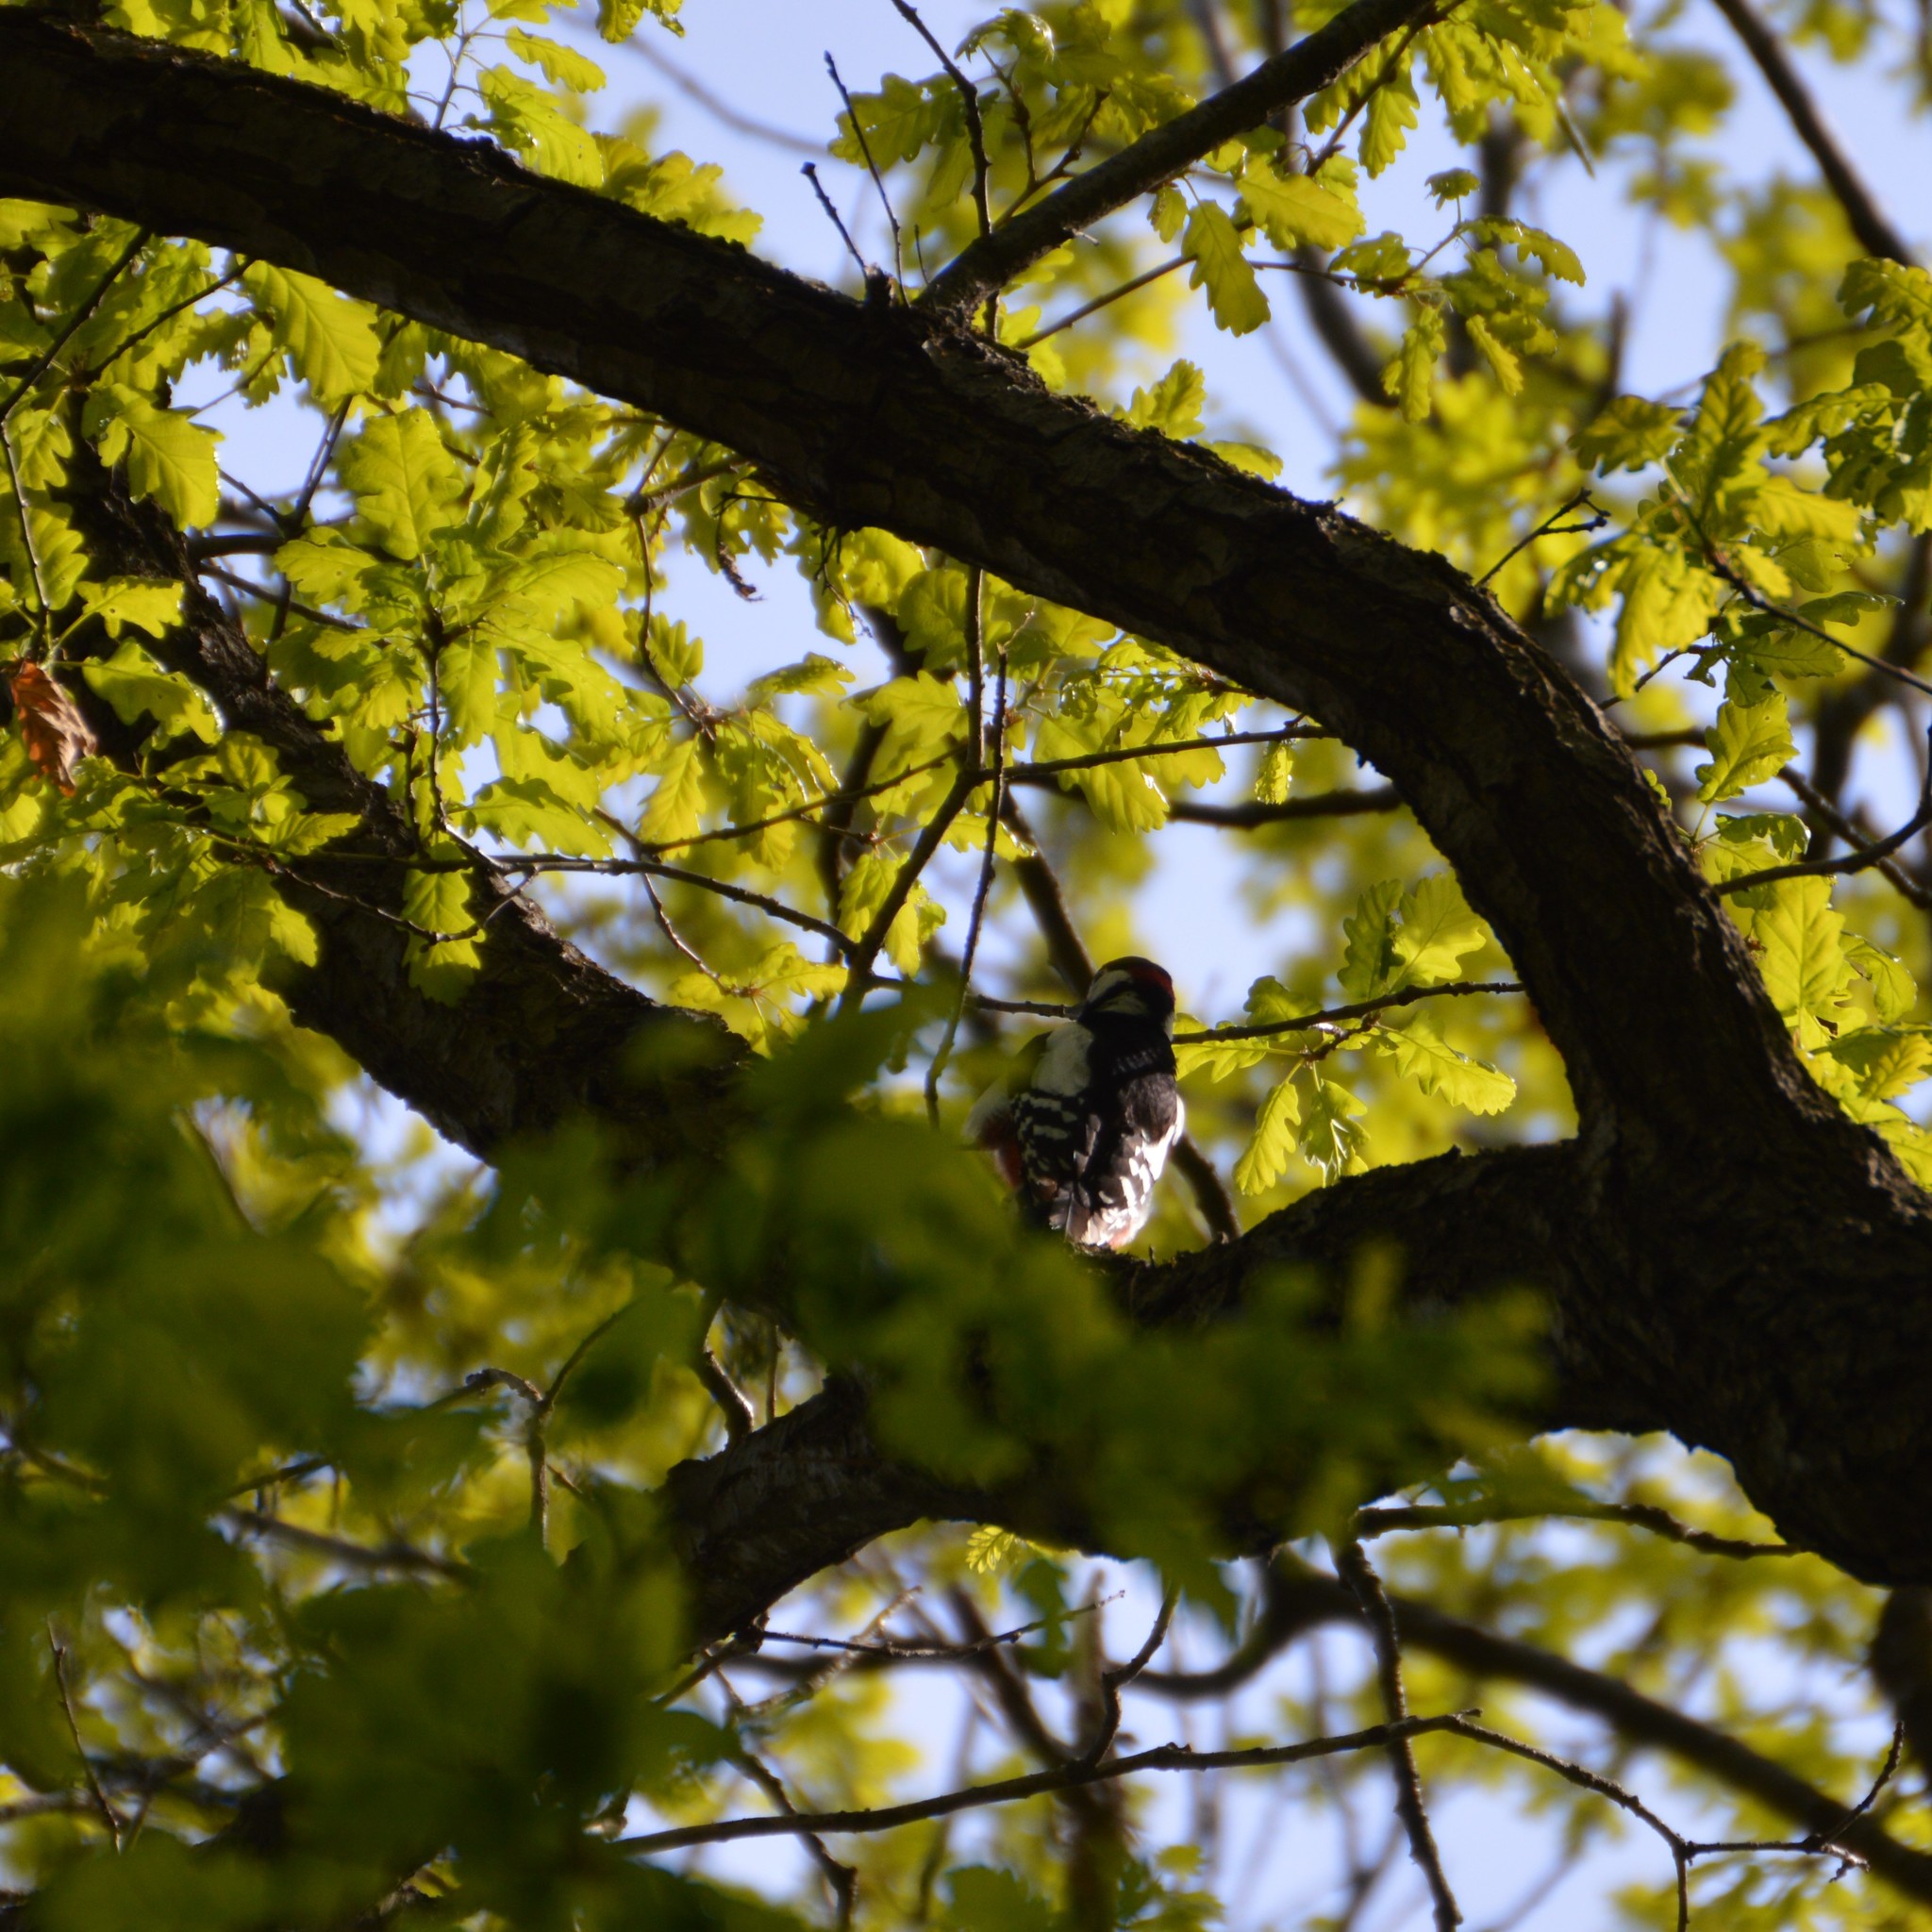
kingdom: Animalia
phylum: Chordata
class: Aves
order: Piciformes
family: Picidae
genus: Dendrocoptes
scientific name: Dendrocoptes medius
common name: Middle spotted woodpecker
